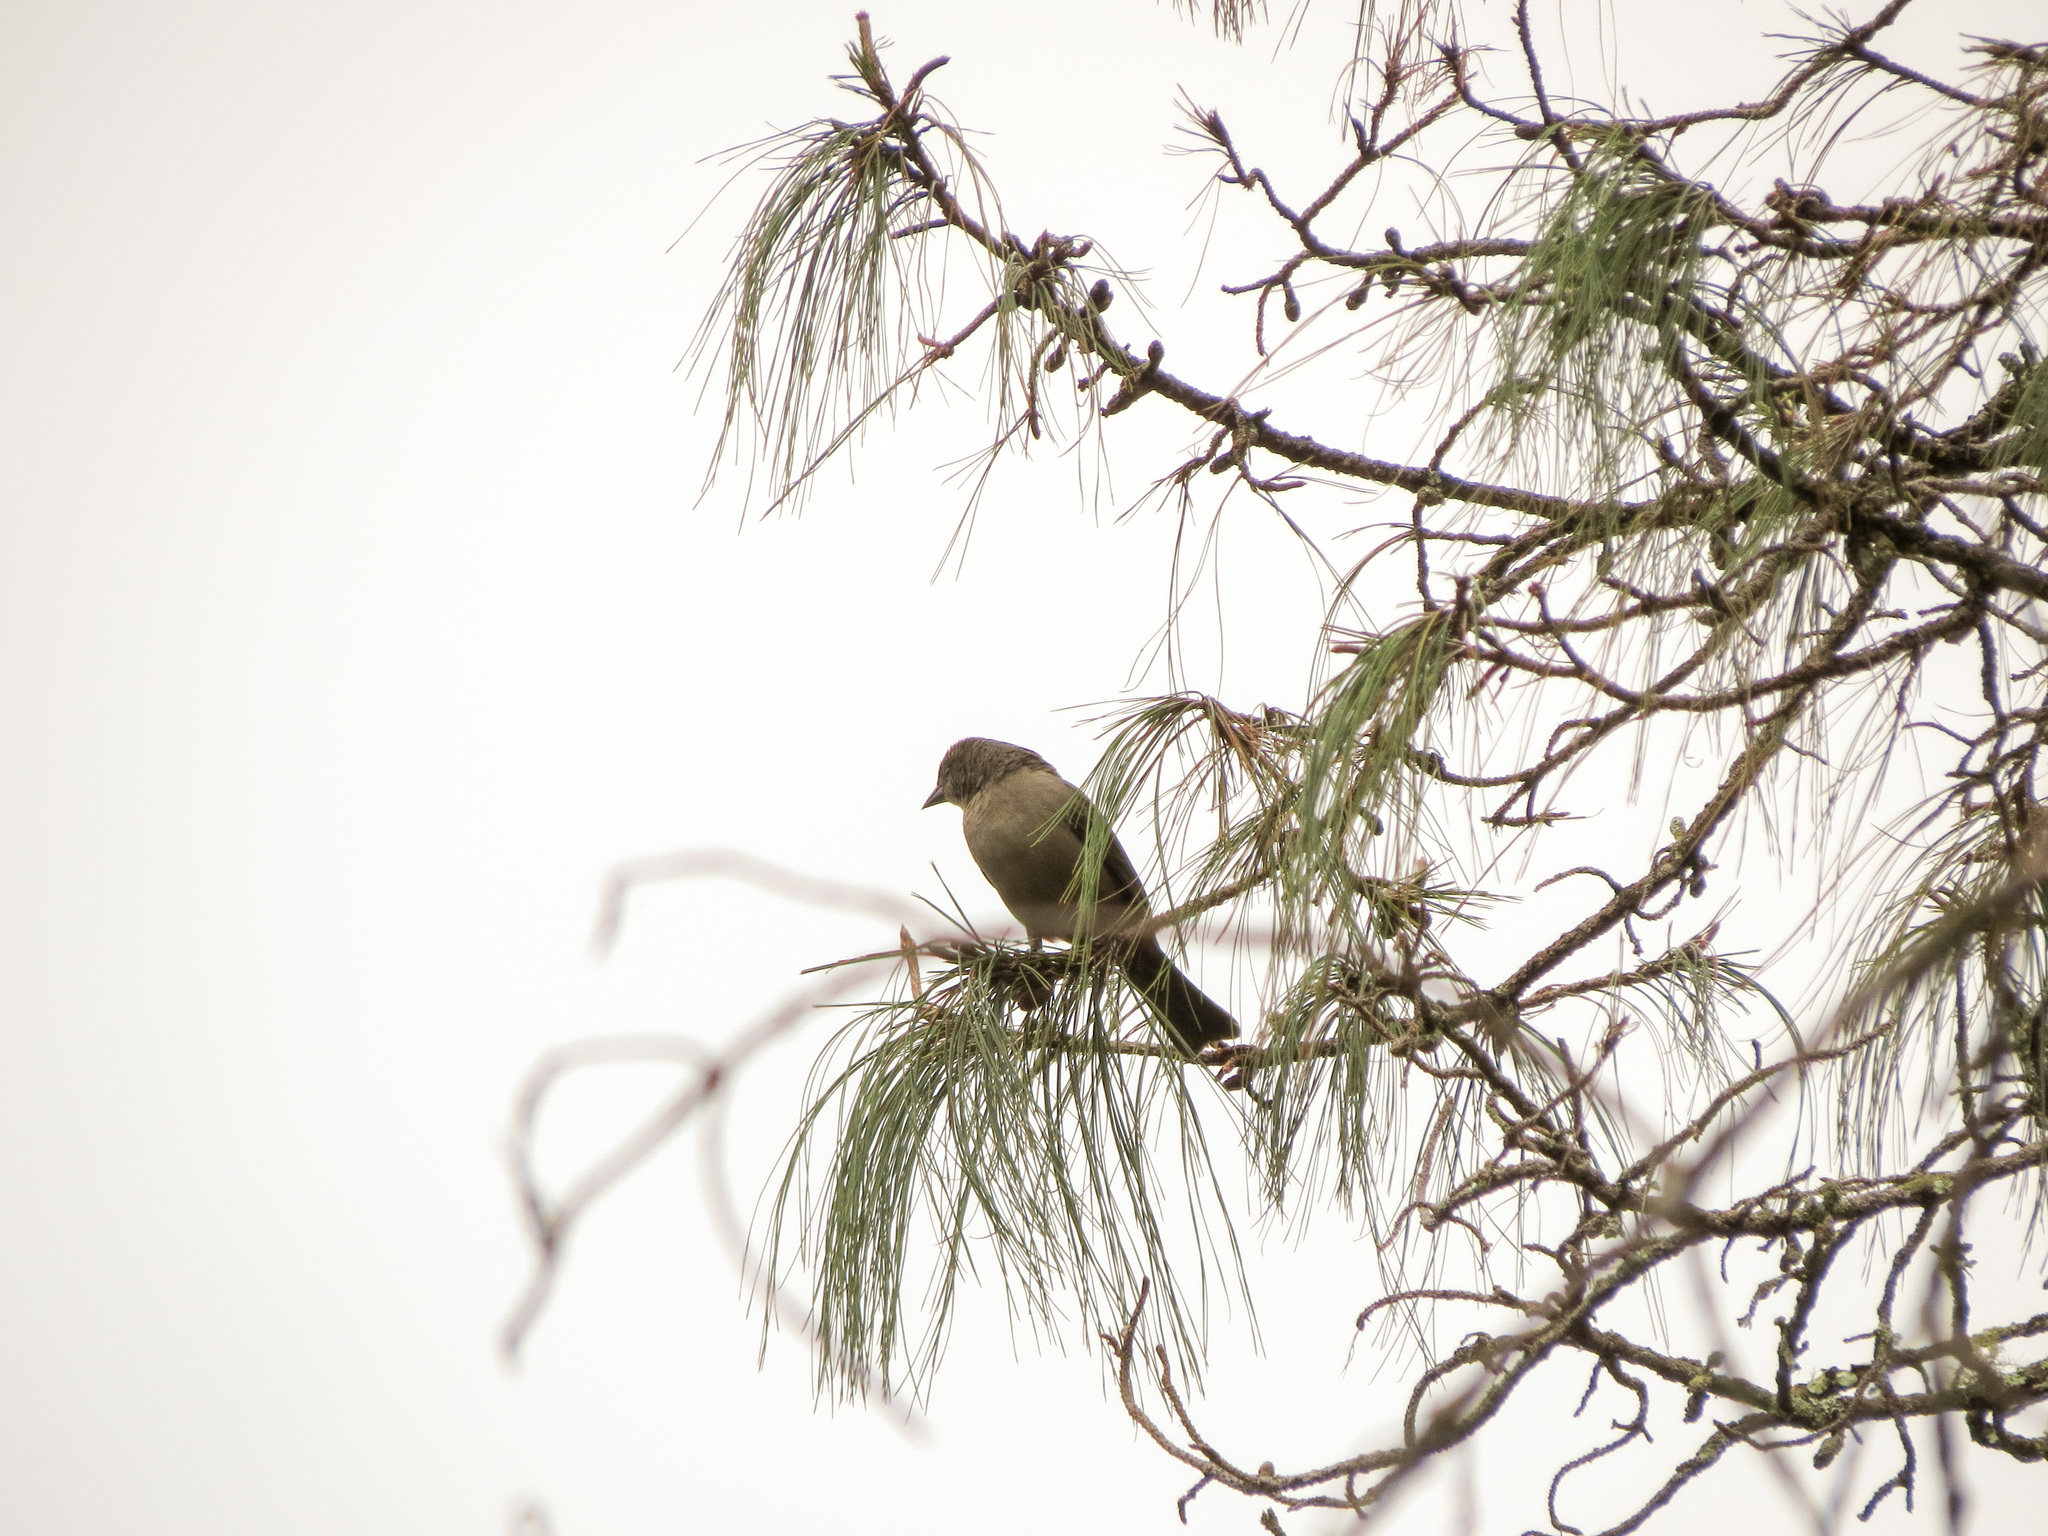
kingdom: Animalia
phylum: Chordata
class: Aves
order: Passeriformes
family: Icteridae
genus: Molothrus
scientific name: Molothrus bonariensis
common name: Shiny cowbird
